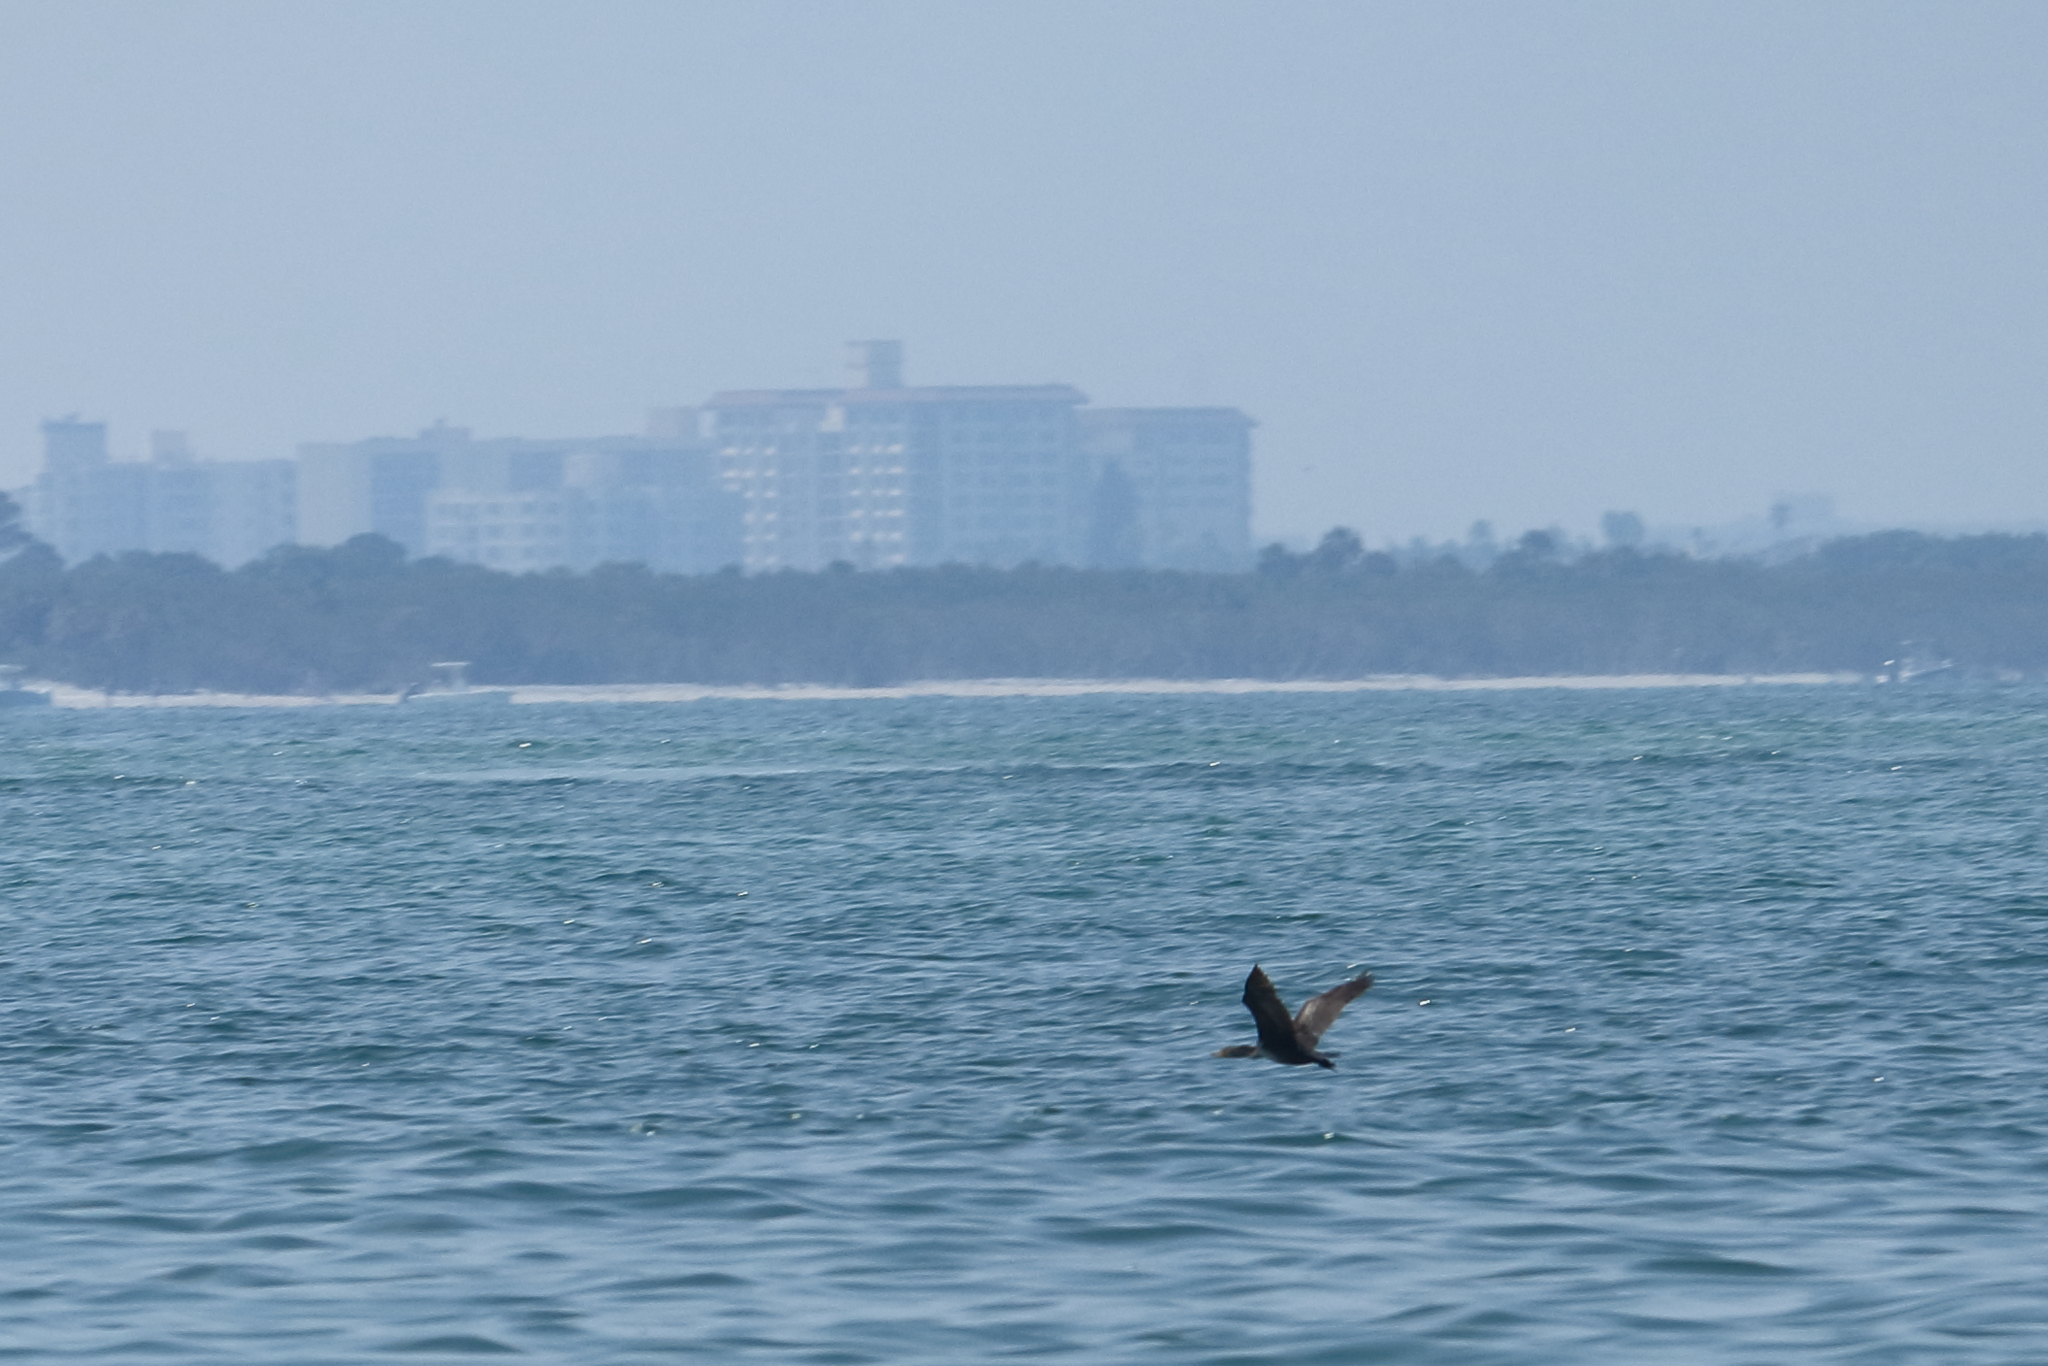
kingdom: Animalia
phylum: Chordata
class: Aves
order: Suliformes
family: Phalacrocoracidae
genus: Phalacrocorax
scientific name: Phalacrocorax auritus
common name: Double-crested cormorant
